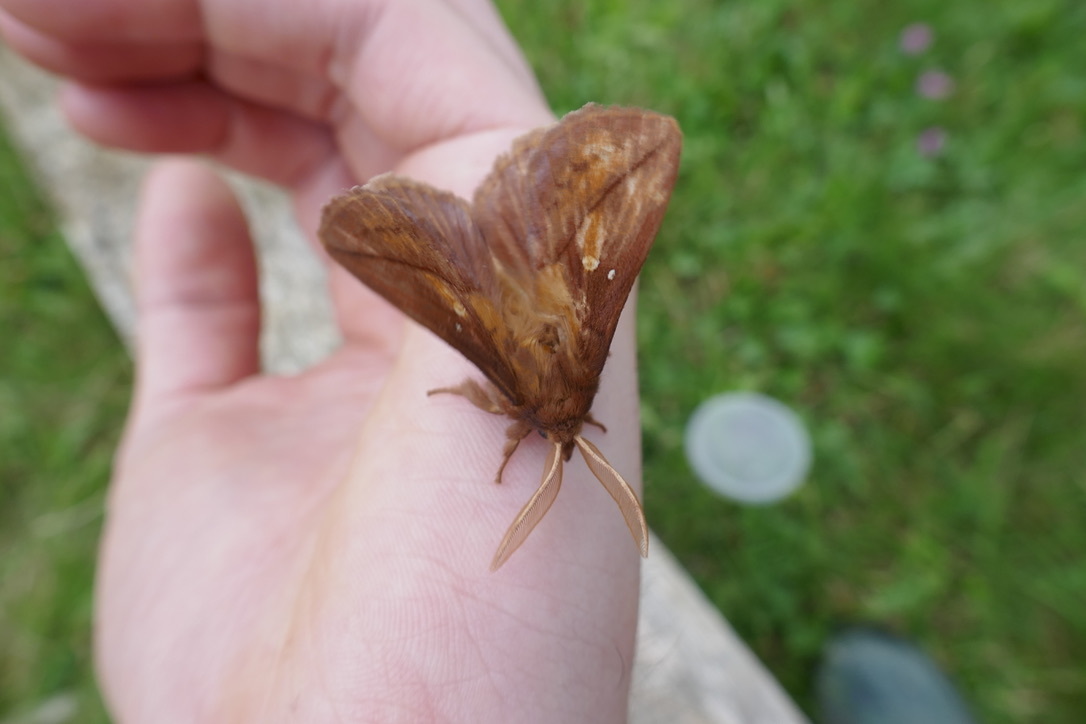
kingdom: Animalia
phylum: Arthropoda
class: Insecta
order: Lepidoptera
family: Lasiocampidae
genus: Euthrix
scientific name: Euthrix potatoria
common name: Drinker
